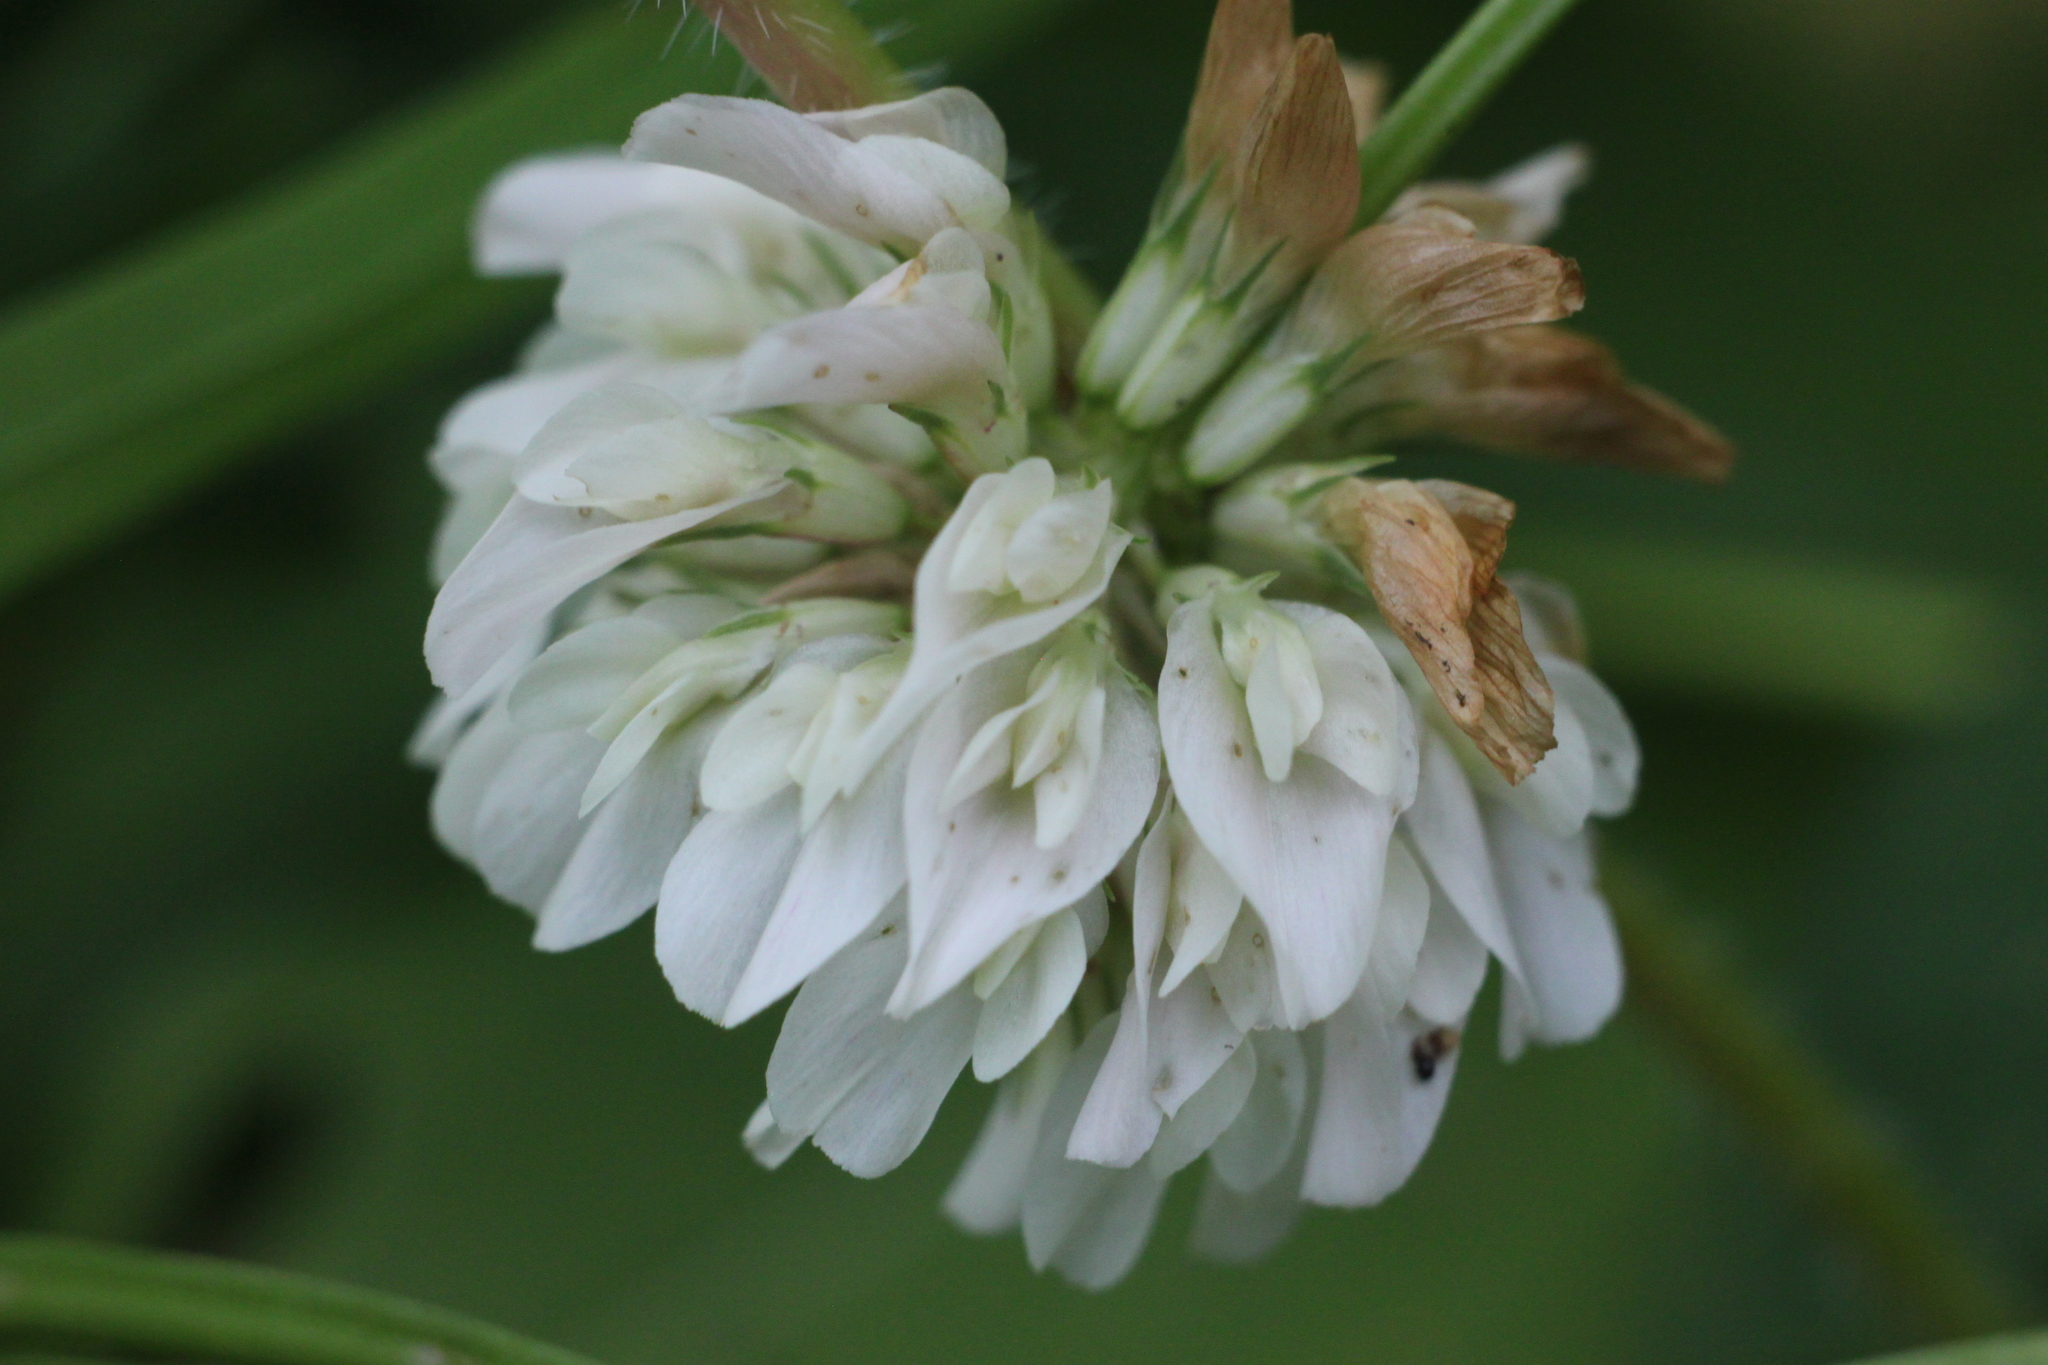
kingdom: Plantae
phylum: Tracheophyta
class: Magnoliopsida
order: Fabales
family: Fabaceae
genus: Trifolium
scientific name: Trifolium repens
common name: White clover
